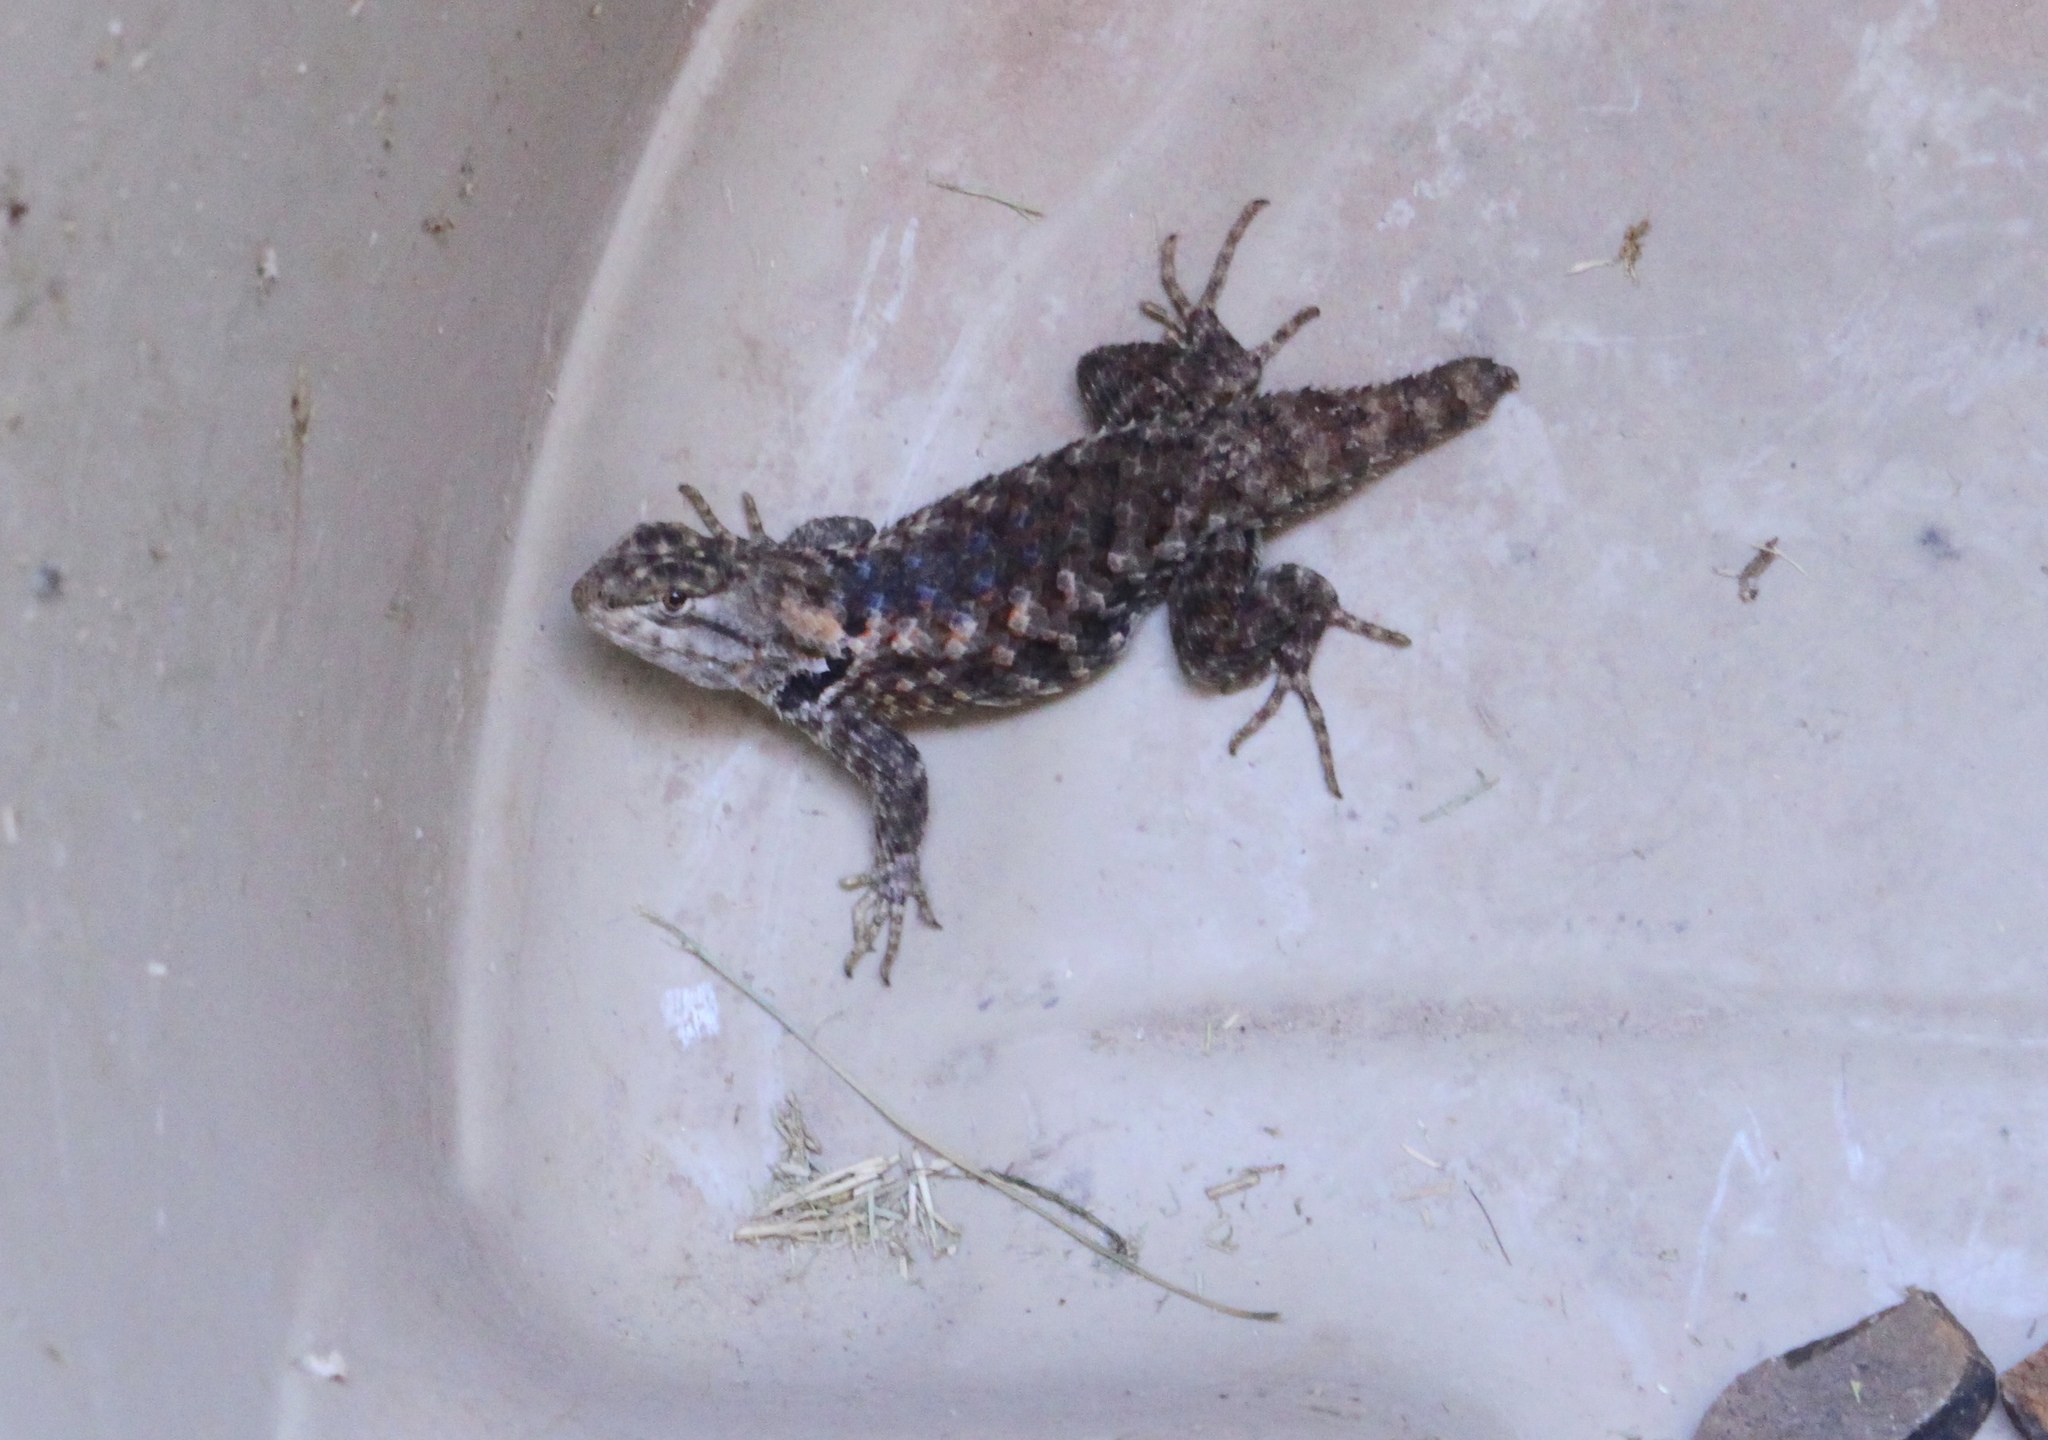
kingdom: Animalia
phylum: Chordata
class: Squamata
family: Phrynosomatidae
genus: Sceloporus
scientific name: Sceloporus magister
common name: Desert spiny lizard
